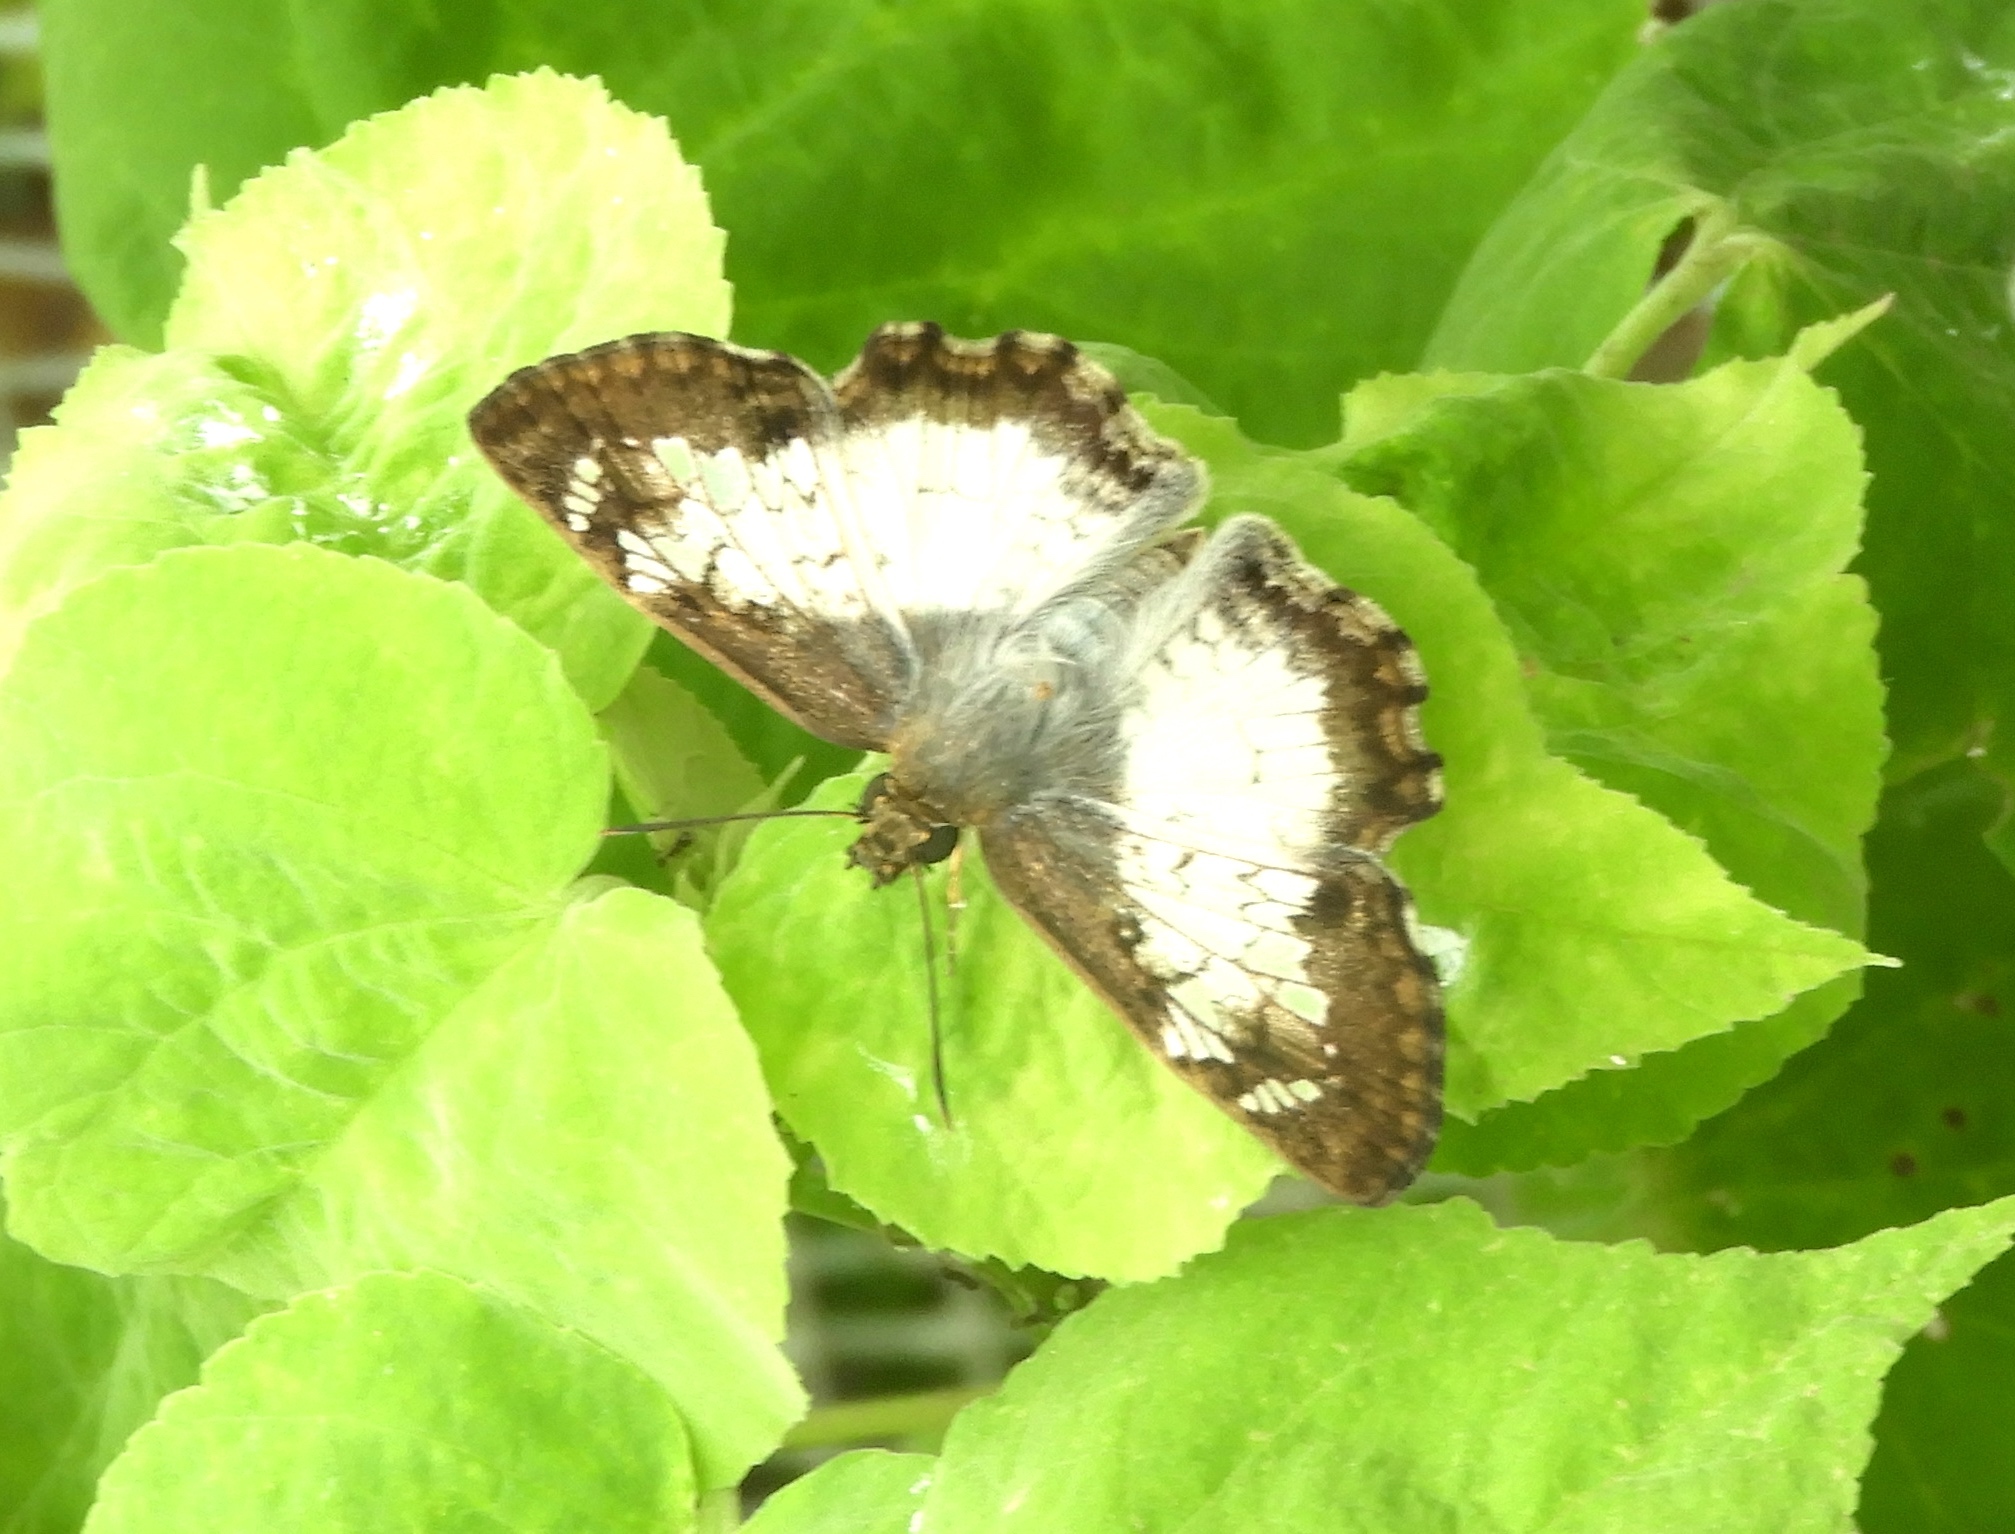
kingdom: Animalia
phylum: Arthropoda
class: Insecta
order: Lepidoptera
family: Hesperiidae
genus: Antigonus
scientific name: Antigonus emorsa
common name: White spurwing
